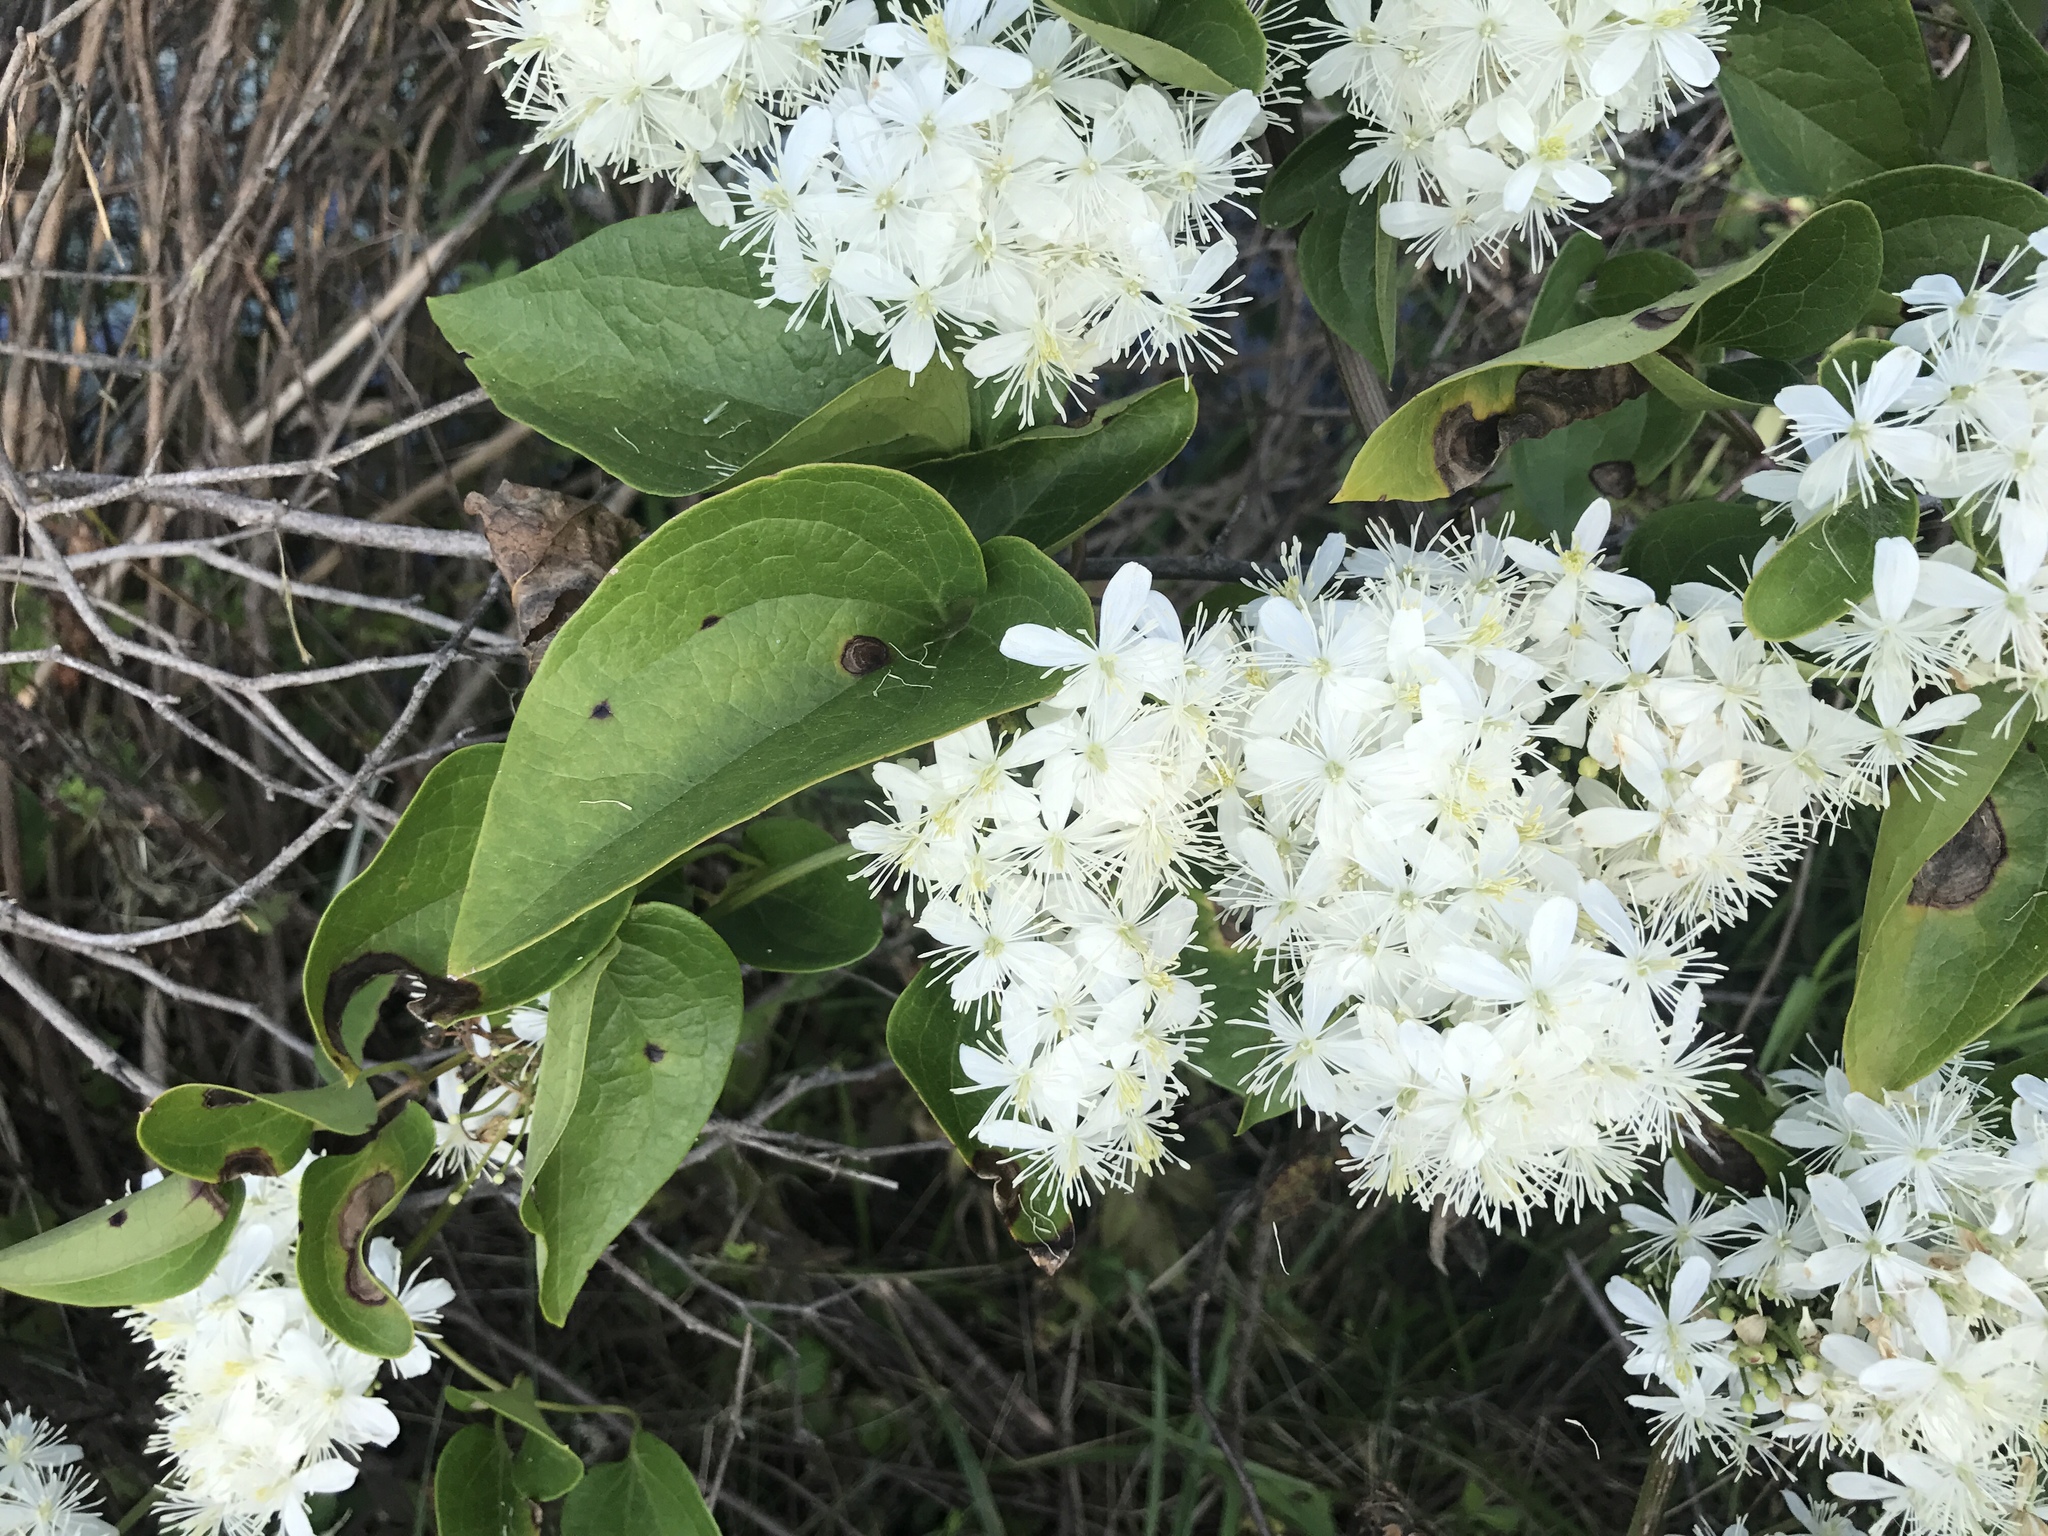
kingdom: Plantae
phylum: Tracheophyta
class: Magnoliopsida
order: Ranunculales
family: Ranunculaceae
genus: Clematis
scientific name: Clematis terniflora
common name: Sweet autumn clematis
